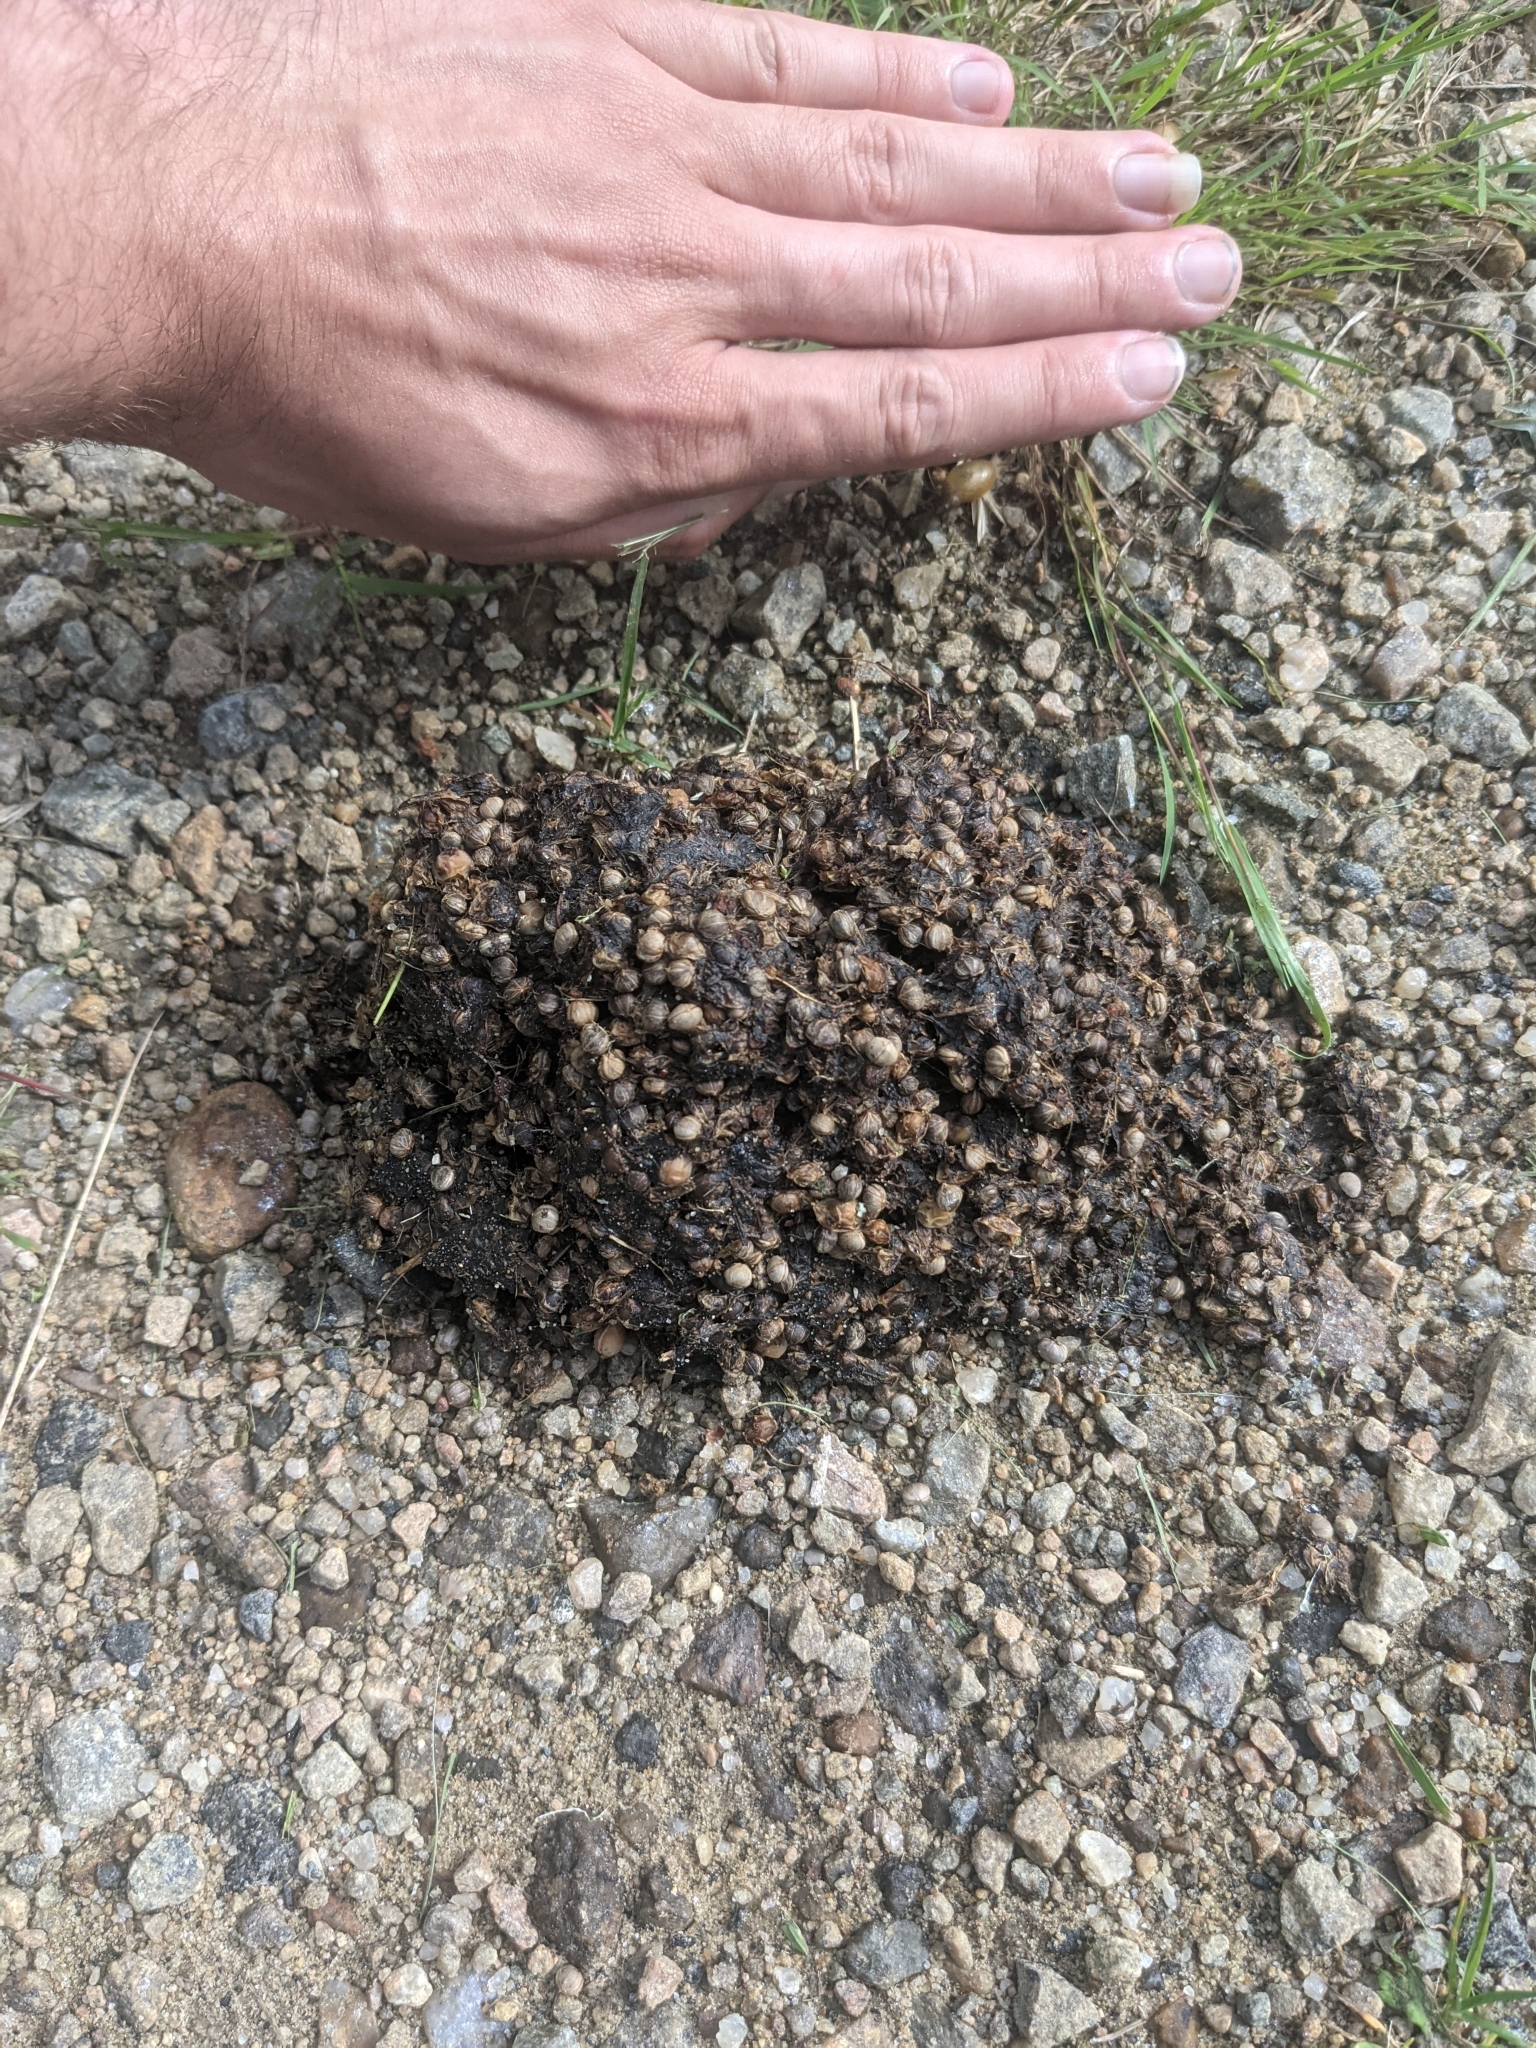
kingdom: Animalia
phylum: Chordata
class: Mammalia
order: Carnivora
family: Ursidae
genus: Ursus
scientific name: Ursus americanus
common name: American black bear
